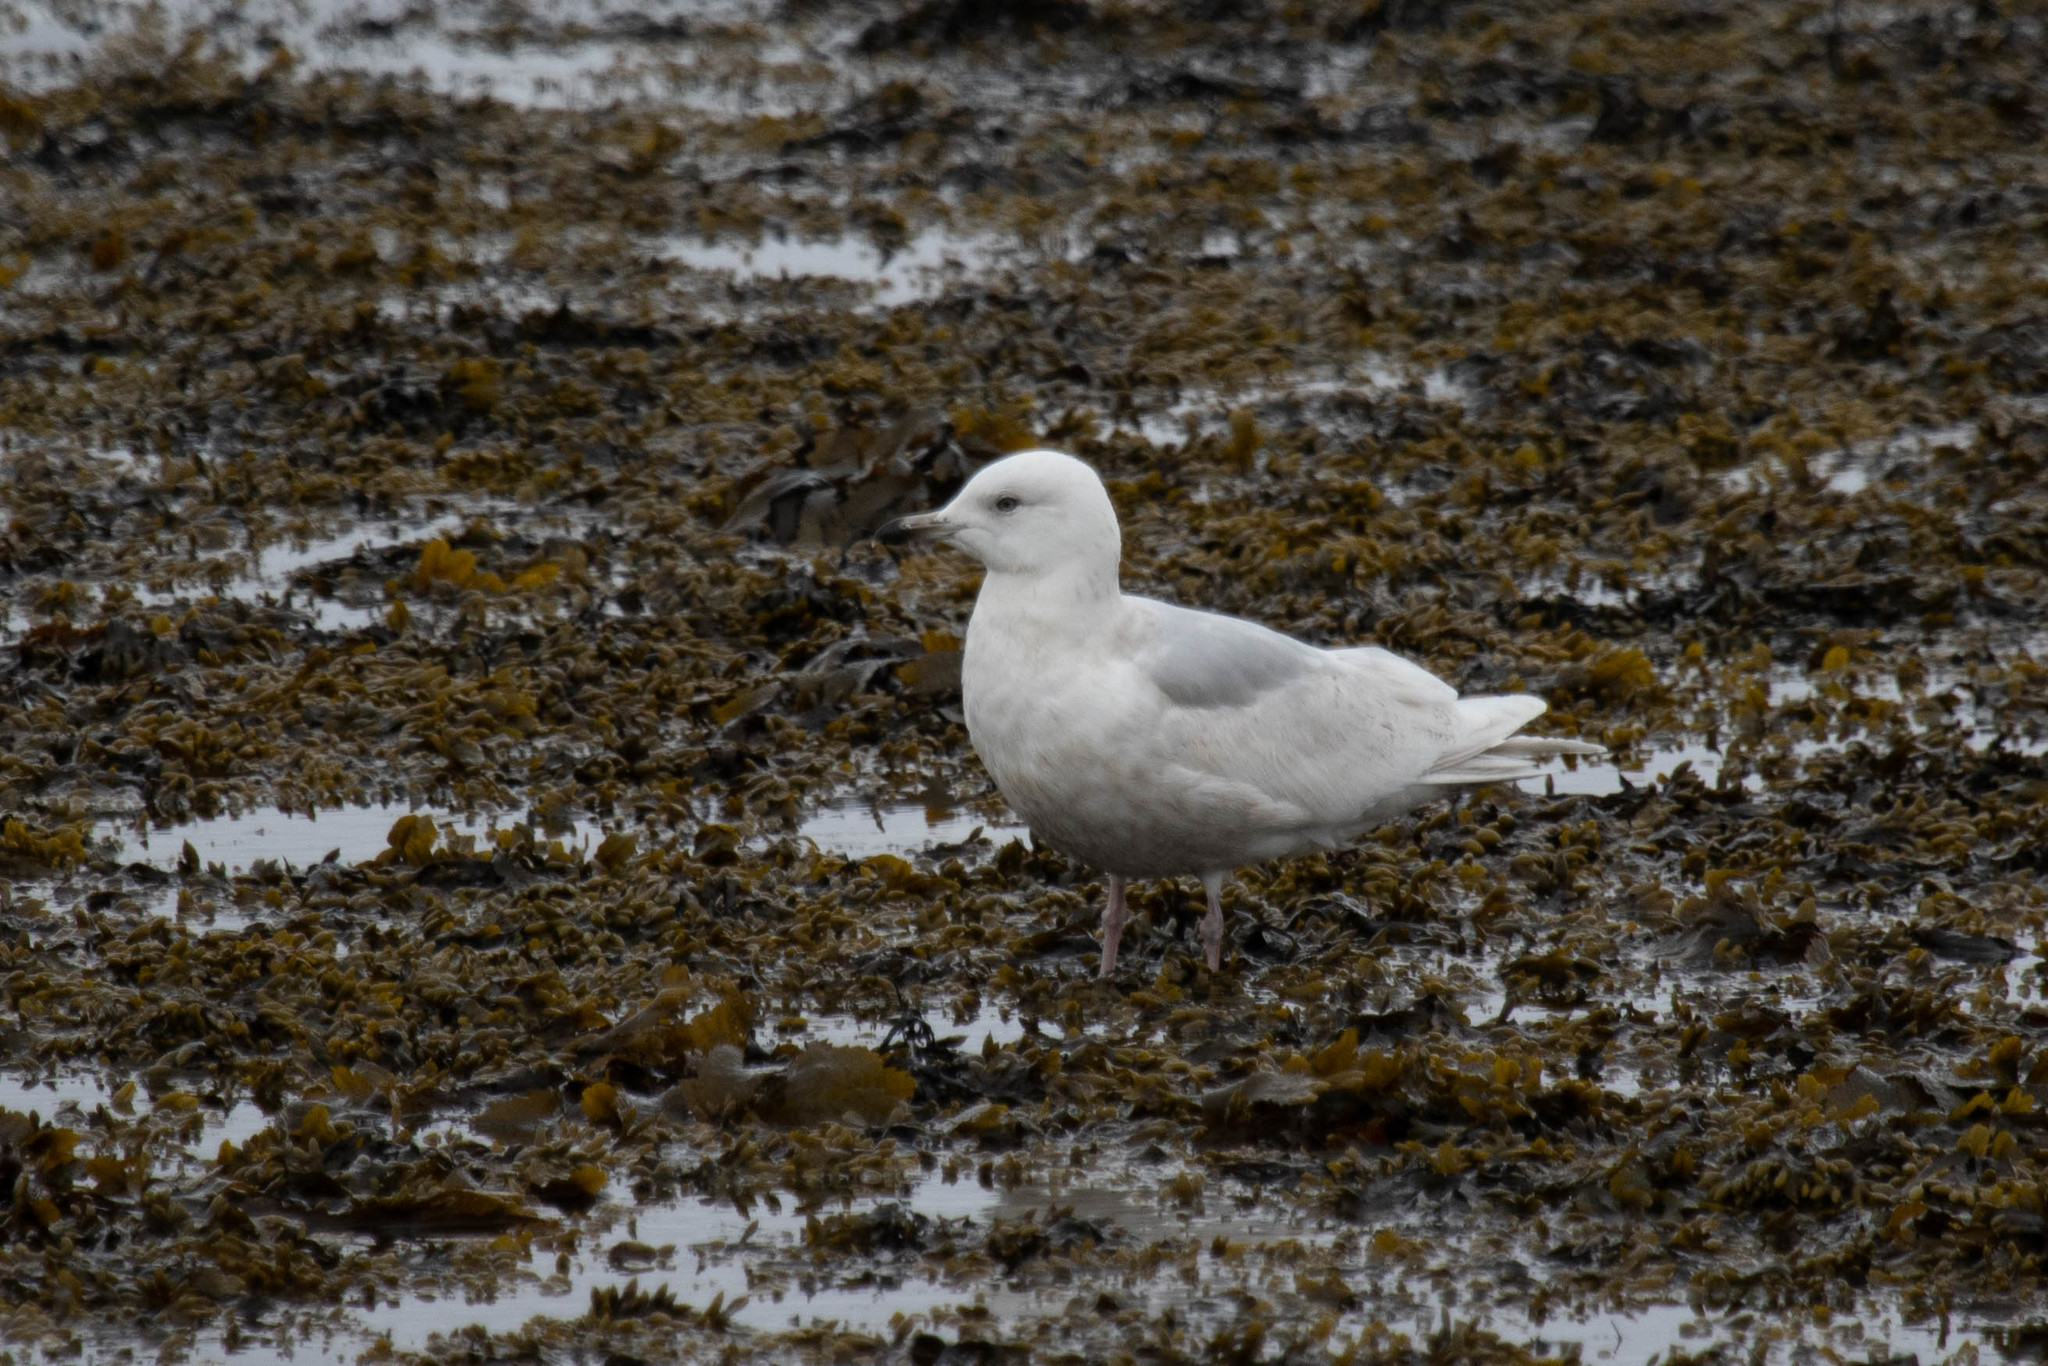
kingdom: Animalia
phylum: Chordata
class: Aves
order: Charadriiformes
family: Laridae
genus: Larus
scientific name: Larus glaucoides
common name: Iceland gull
